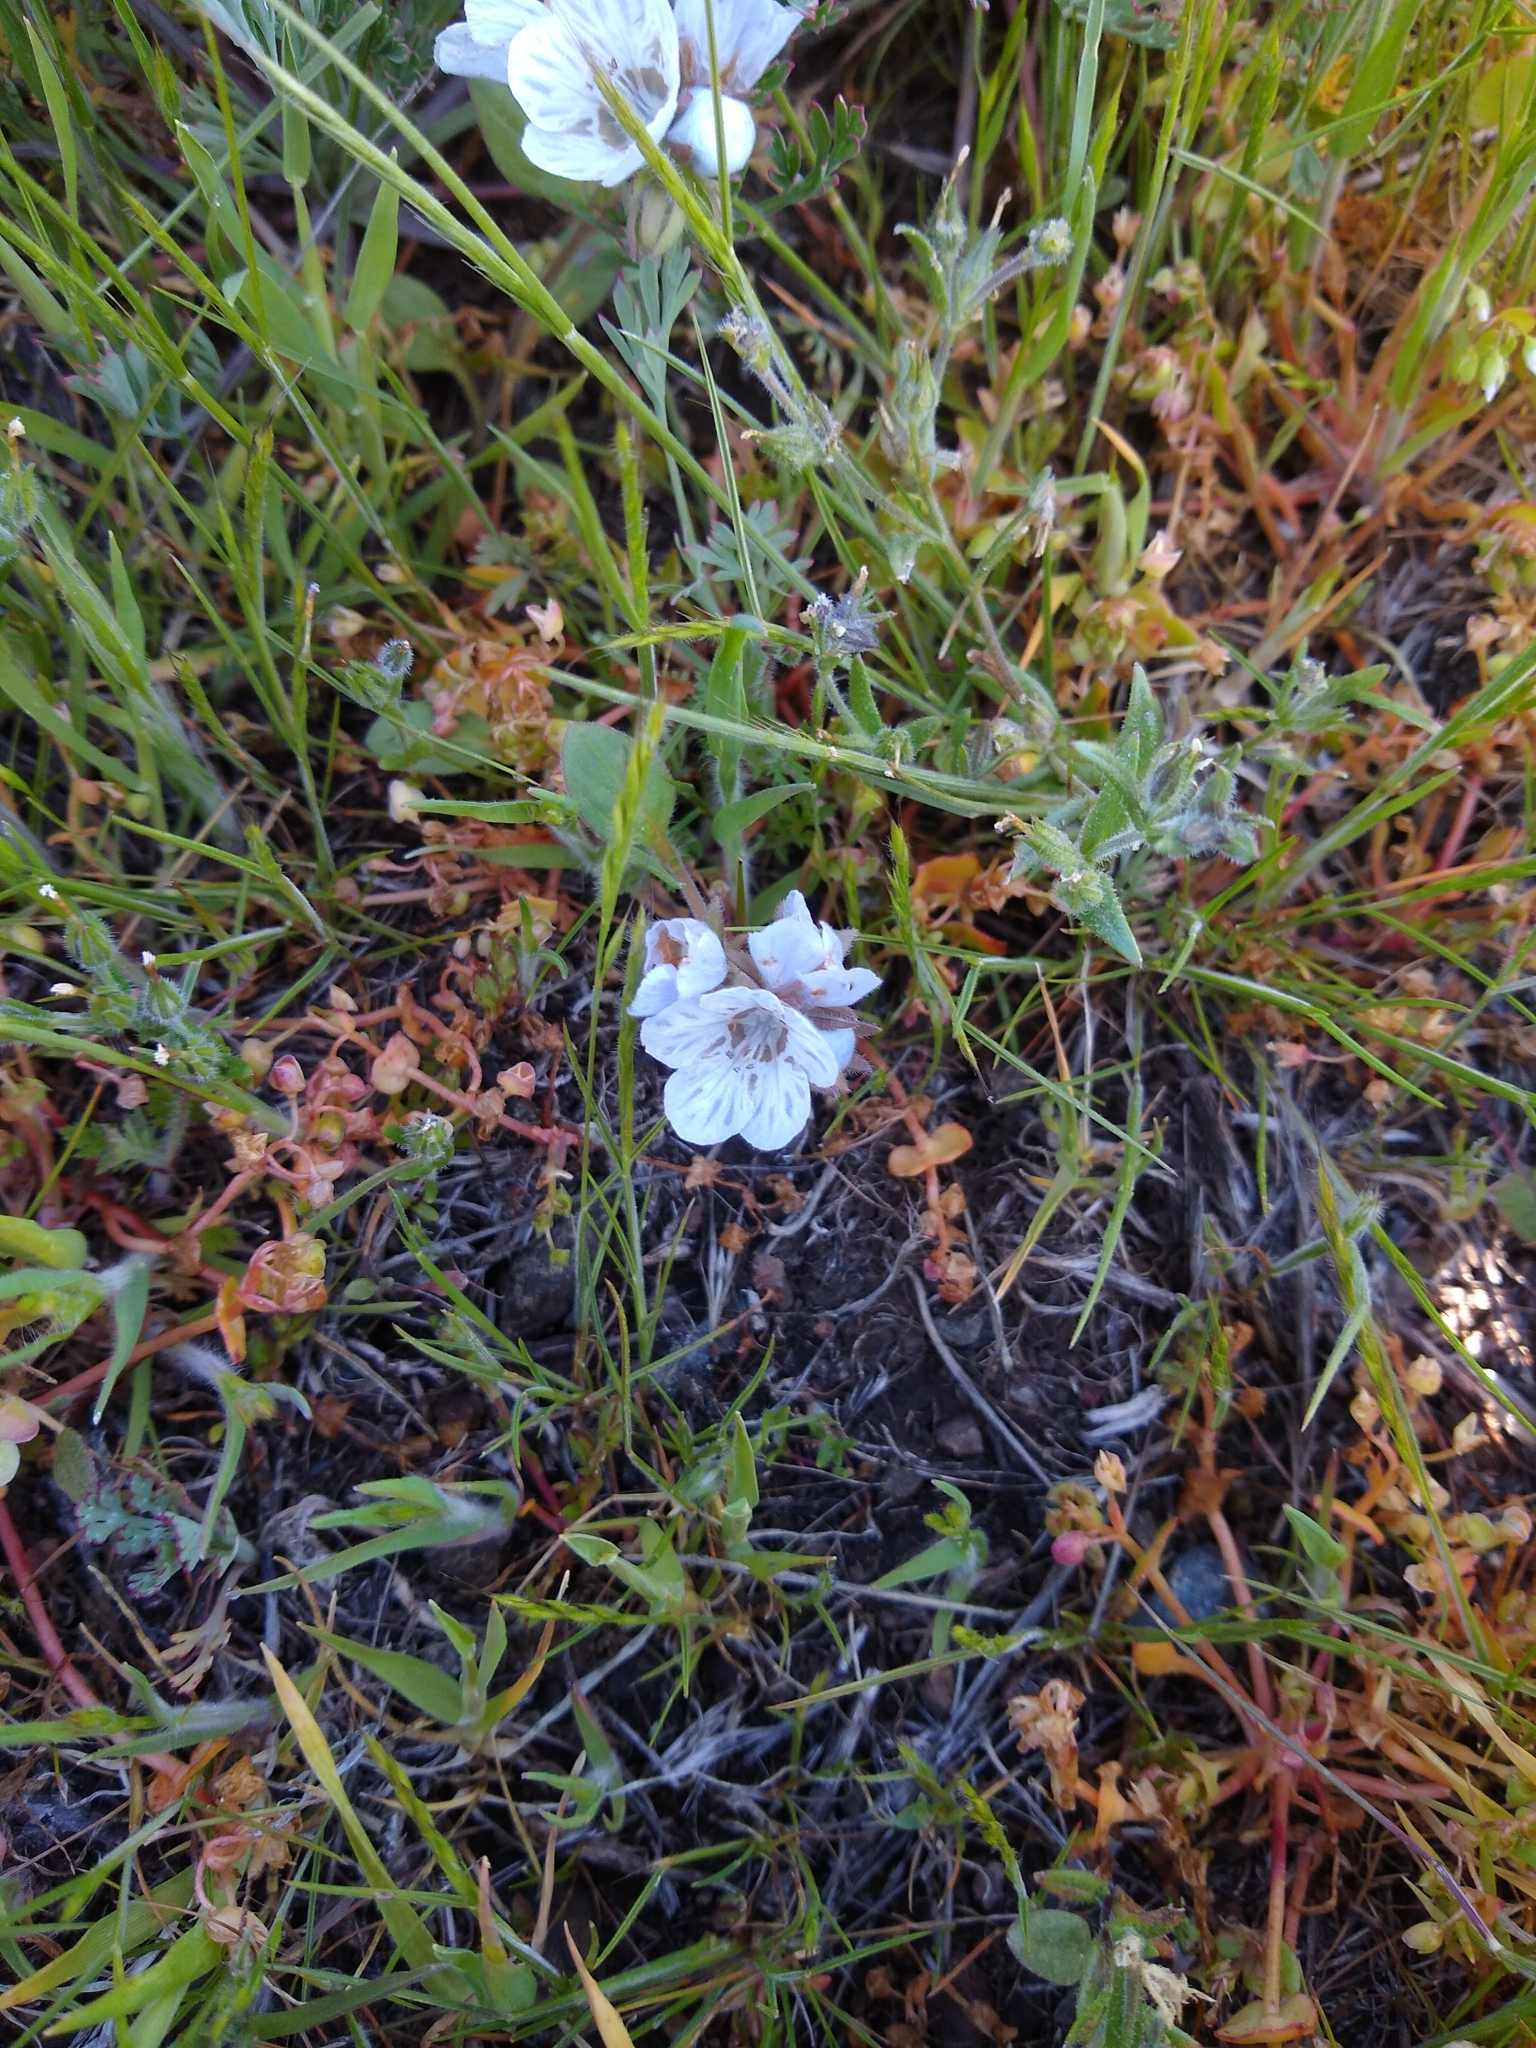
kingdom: Plantae
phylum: Tracheophyta
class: Magnoliopsida
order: Boraginales
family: Hydrophyllaceae
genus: Phacelia
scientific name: Phacelia divaricata
